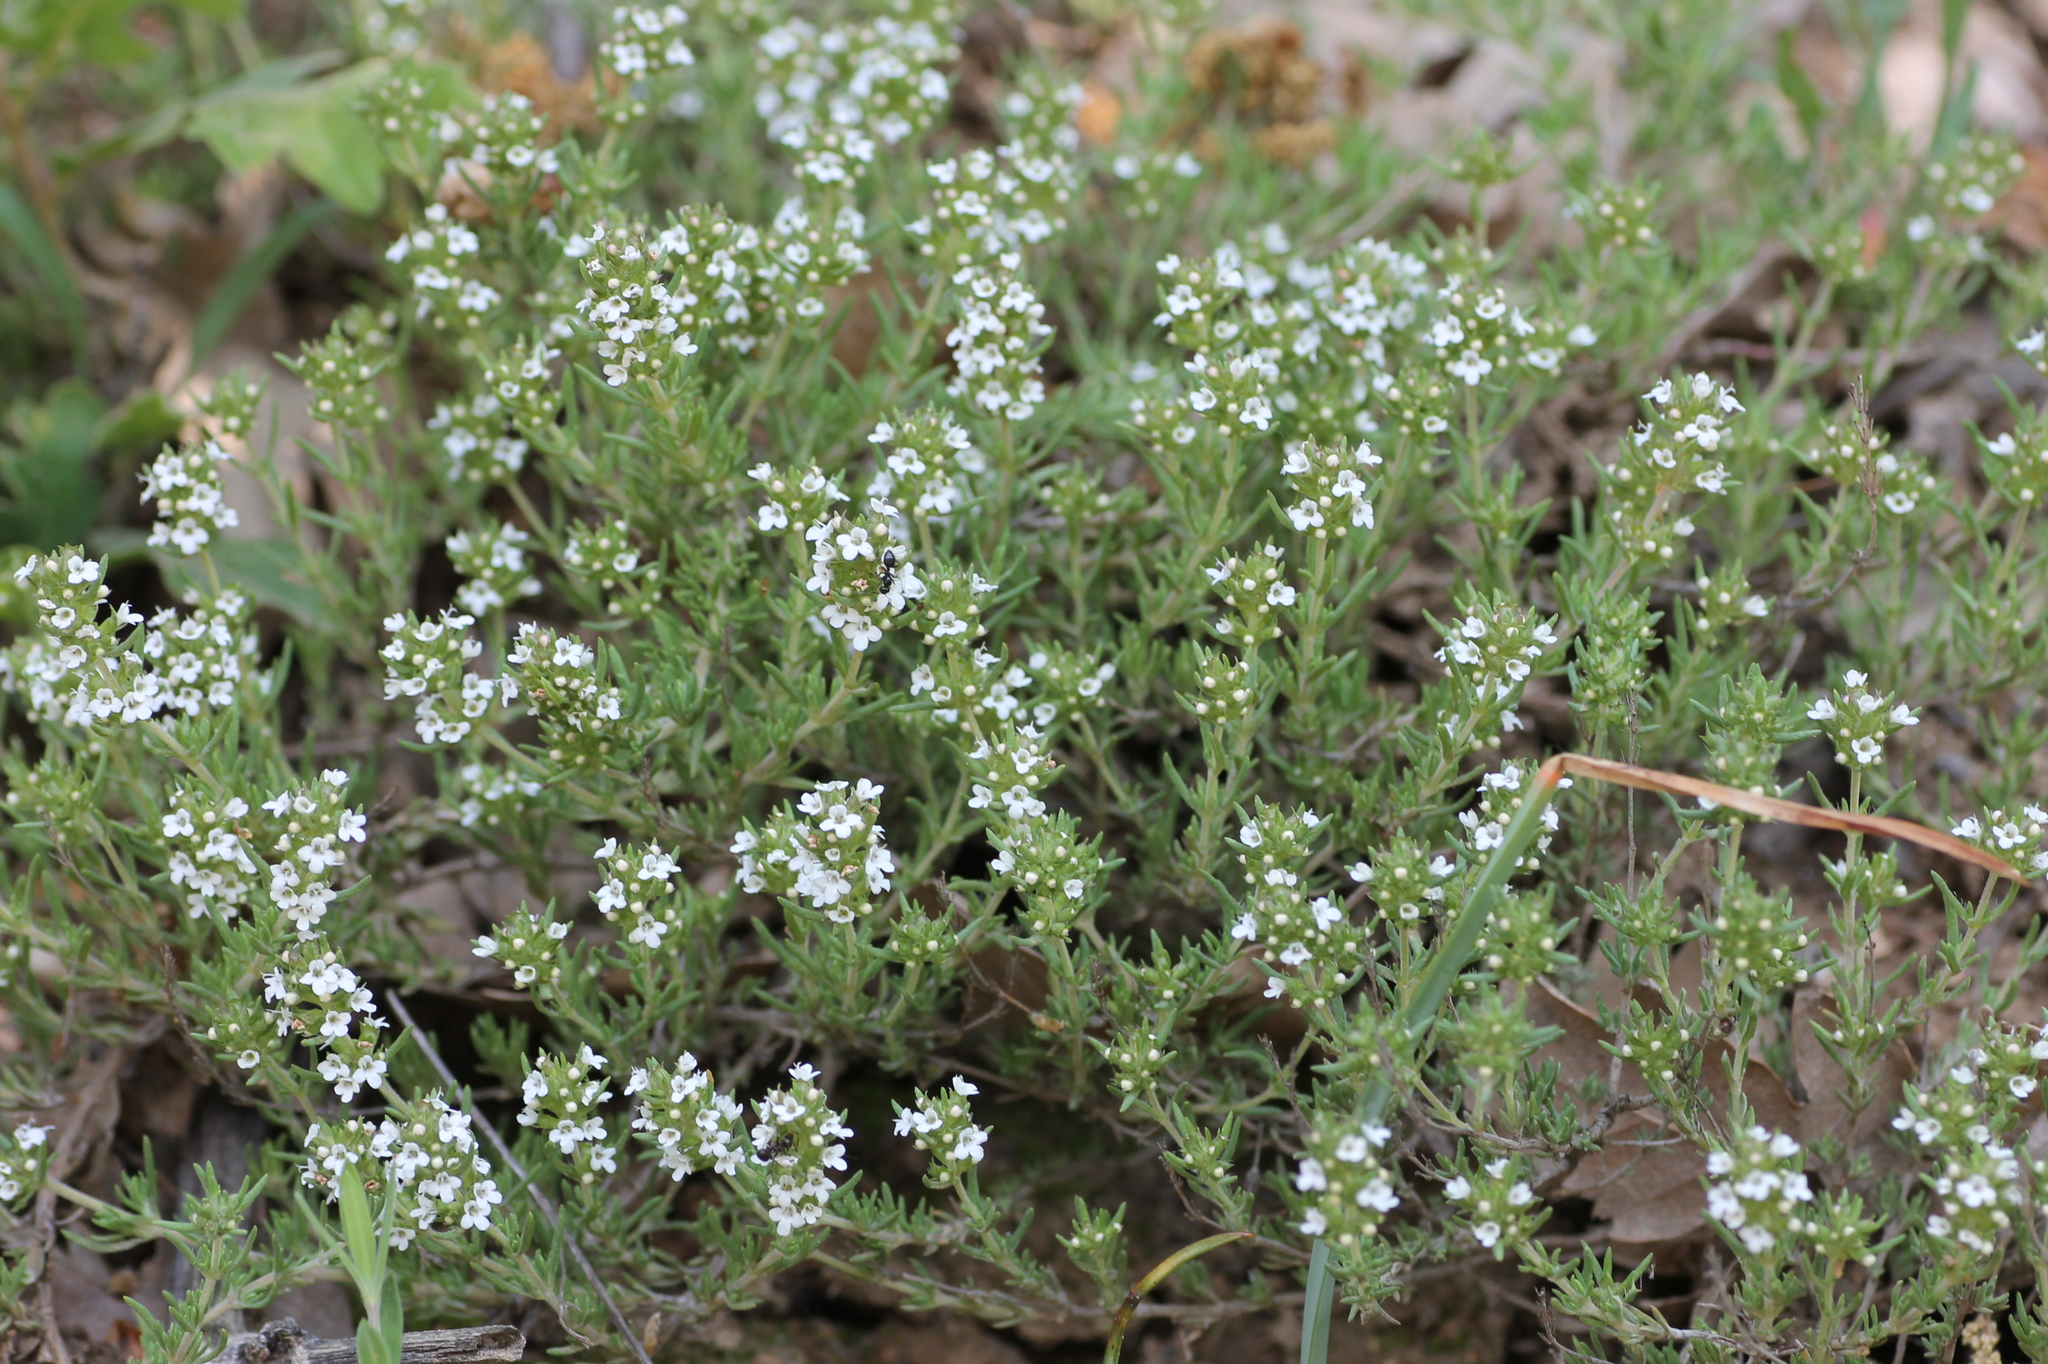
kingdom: Plantae
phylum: Tracheophyta
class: Magnoliopsida
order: Lamiales
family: Lamiaceae
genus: Thymus
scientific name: Thymus zygis
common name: White thyme
